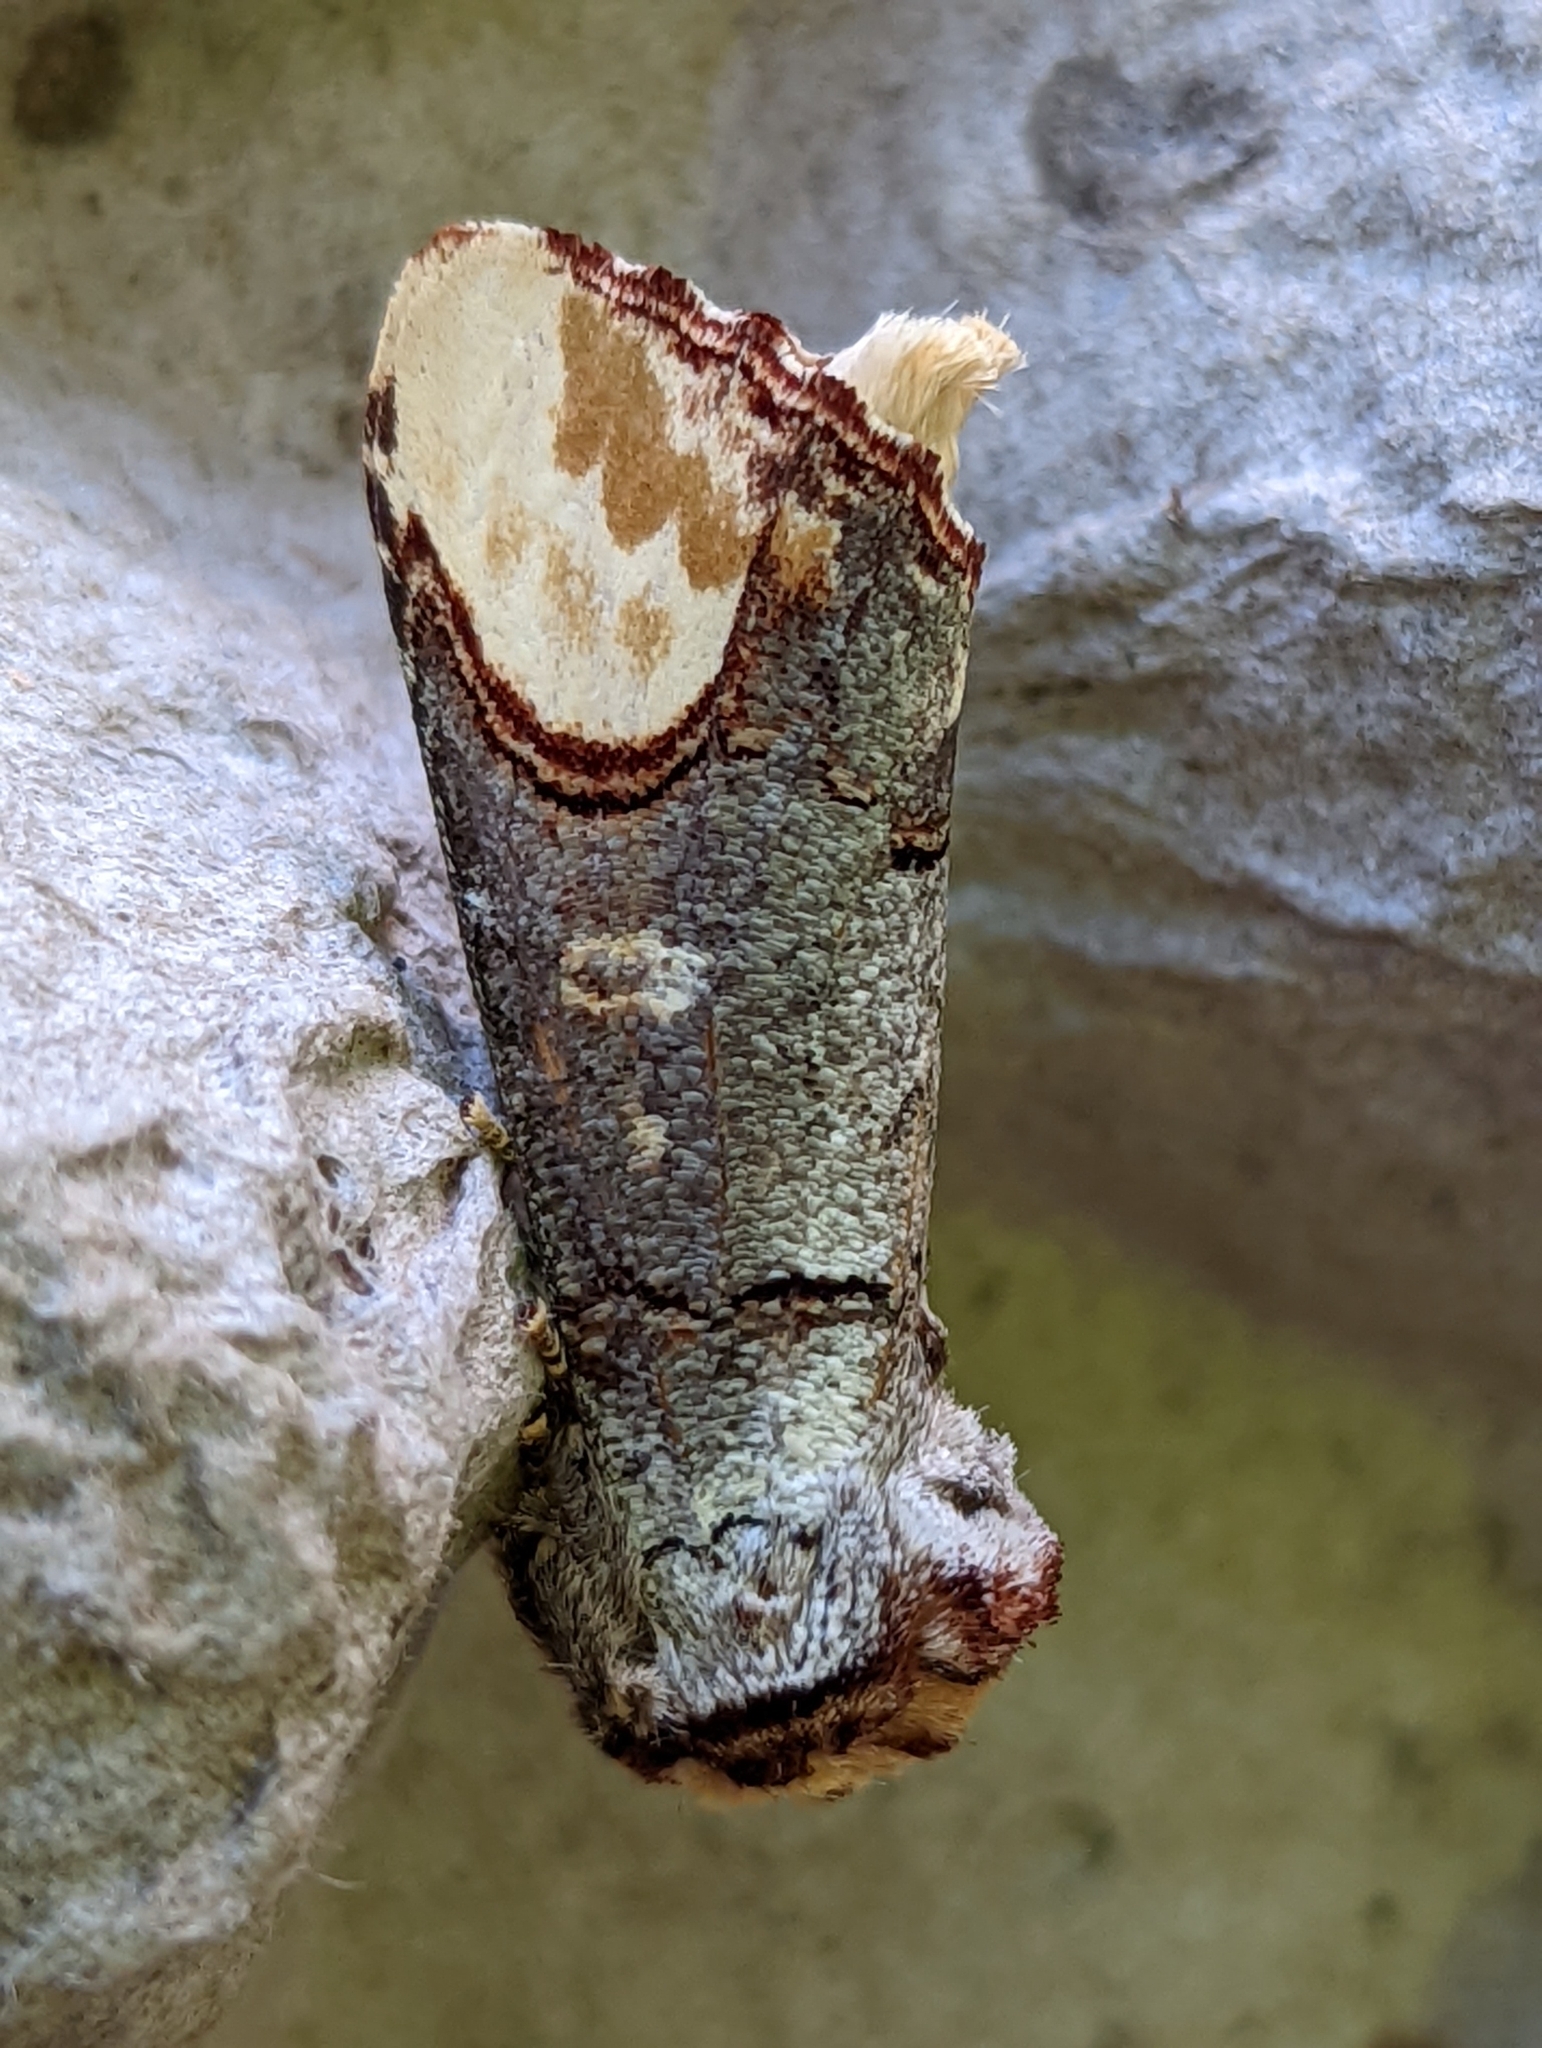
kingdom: Animalia
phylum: Arthropoda
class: Insecta
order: Lepidoptera
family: Notodontidae
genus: Phalera
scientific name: Phalera bucephala
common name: Buff-tip
